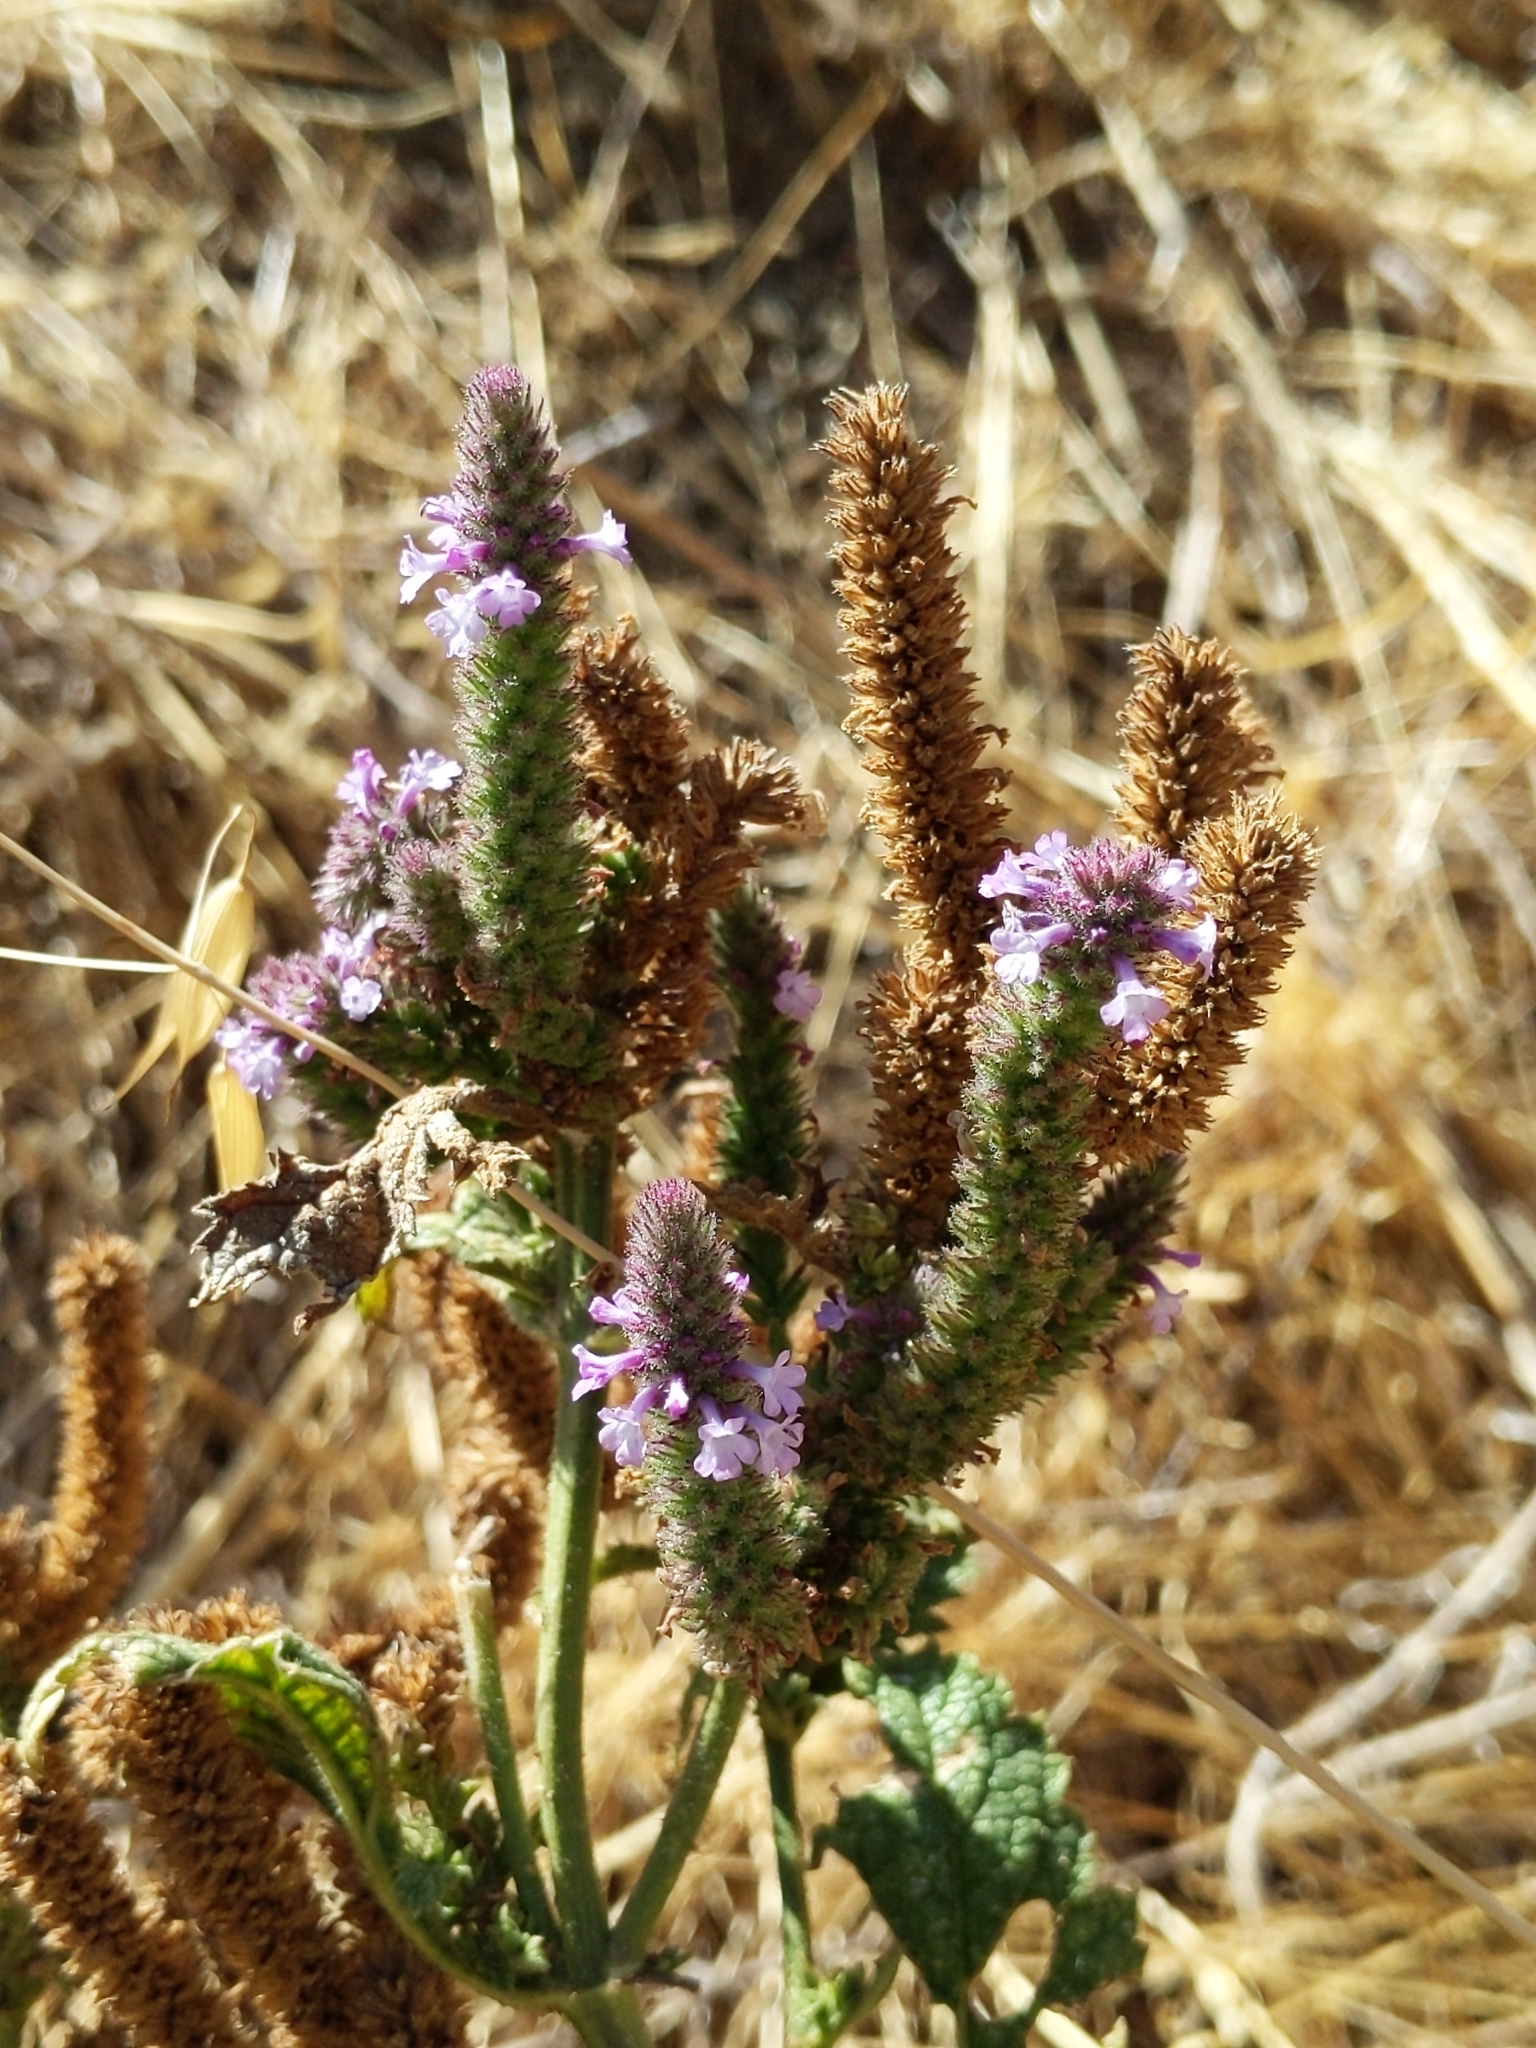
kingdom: Plantae
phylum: Tracheophyta
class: Magnoliopsida
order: Lamiales
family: Verbenaceae
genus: Verbena
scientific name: Verbena lasiostachys
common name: Vervain
